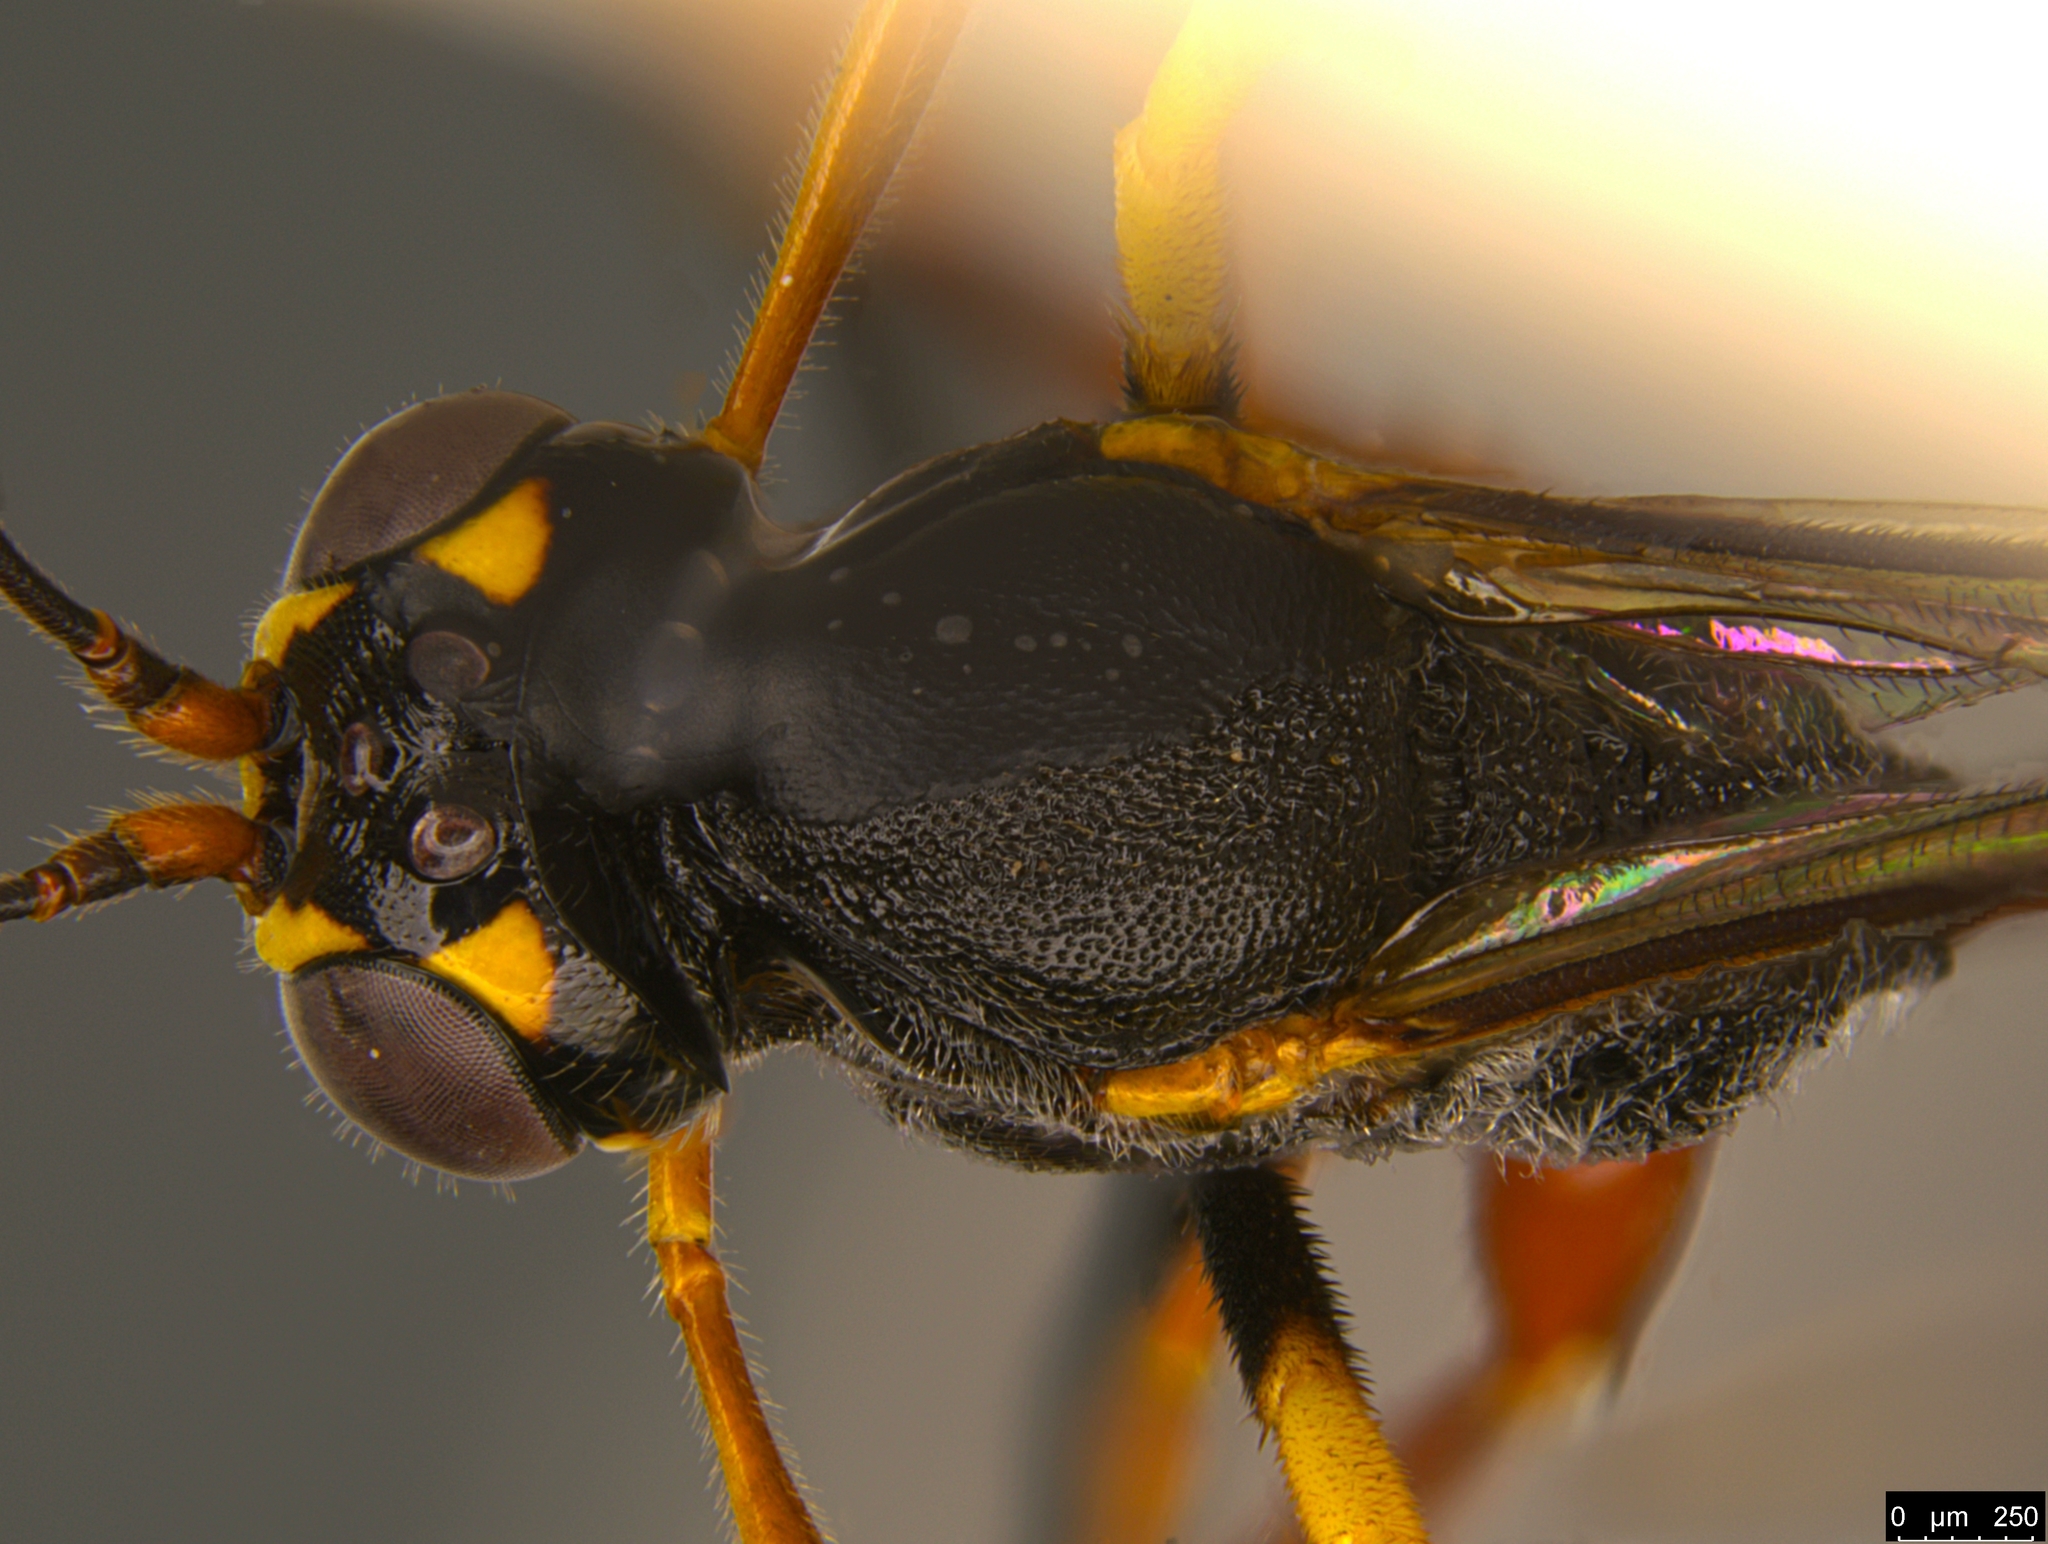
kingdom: Animalia
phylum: Arthropoda
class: Insecta
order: Hymenoptera
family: Ichneumonidae
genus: Trichomma
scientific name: Trichomma biroi
